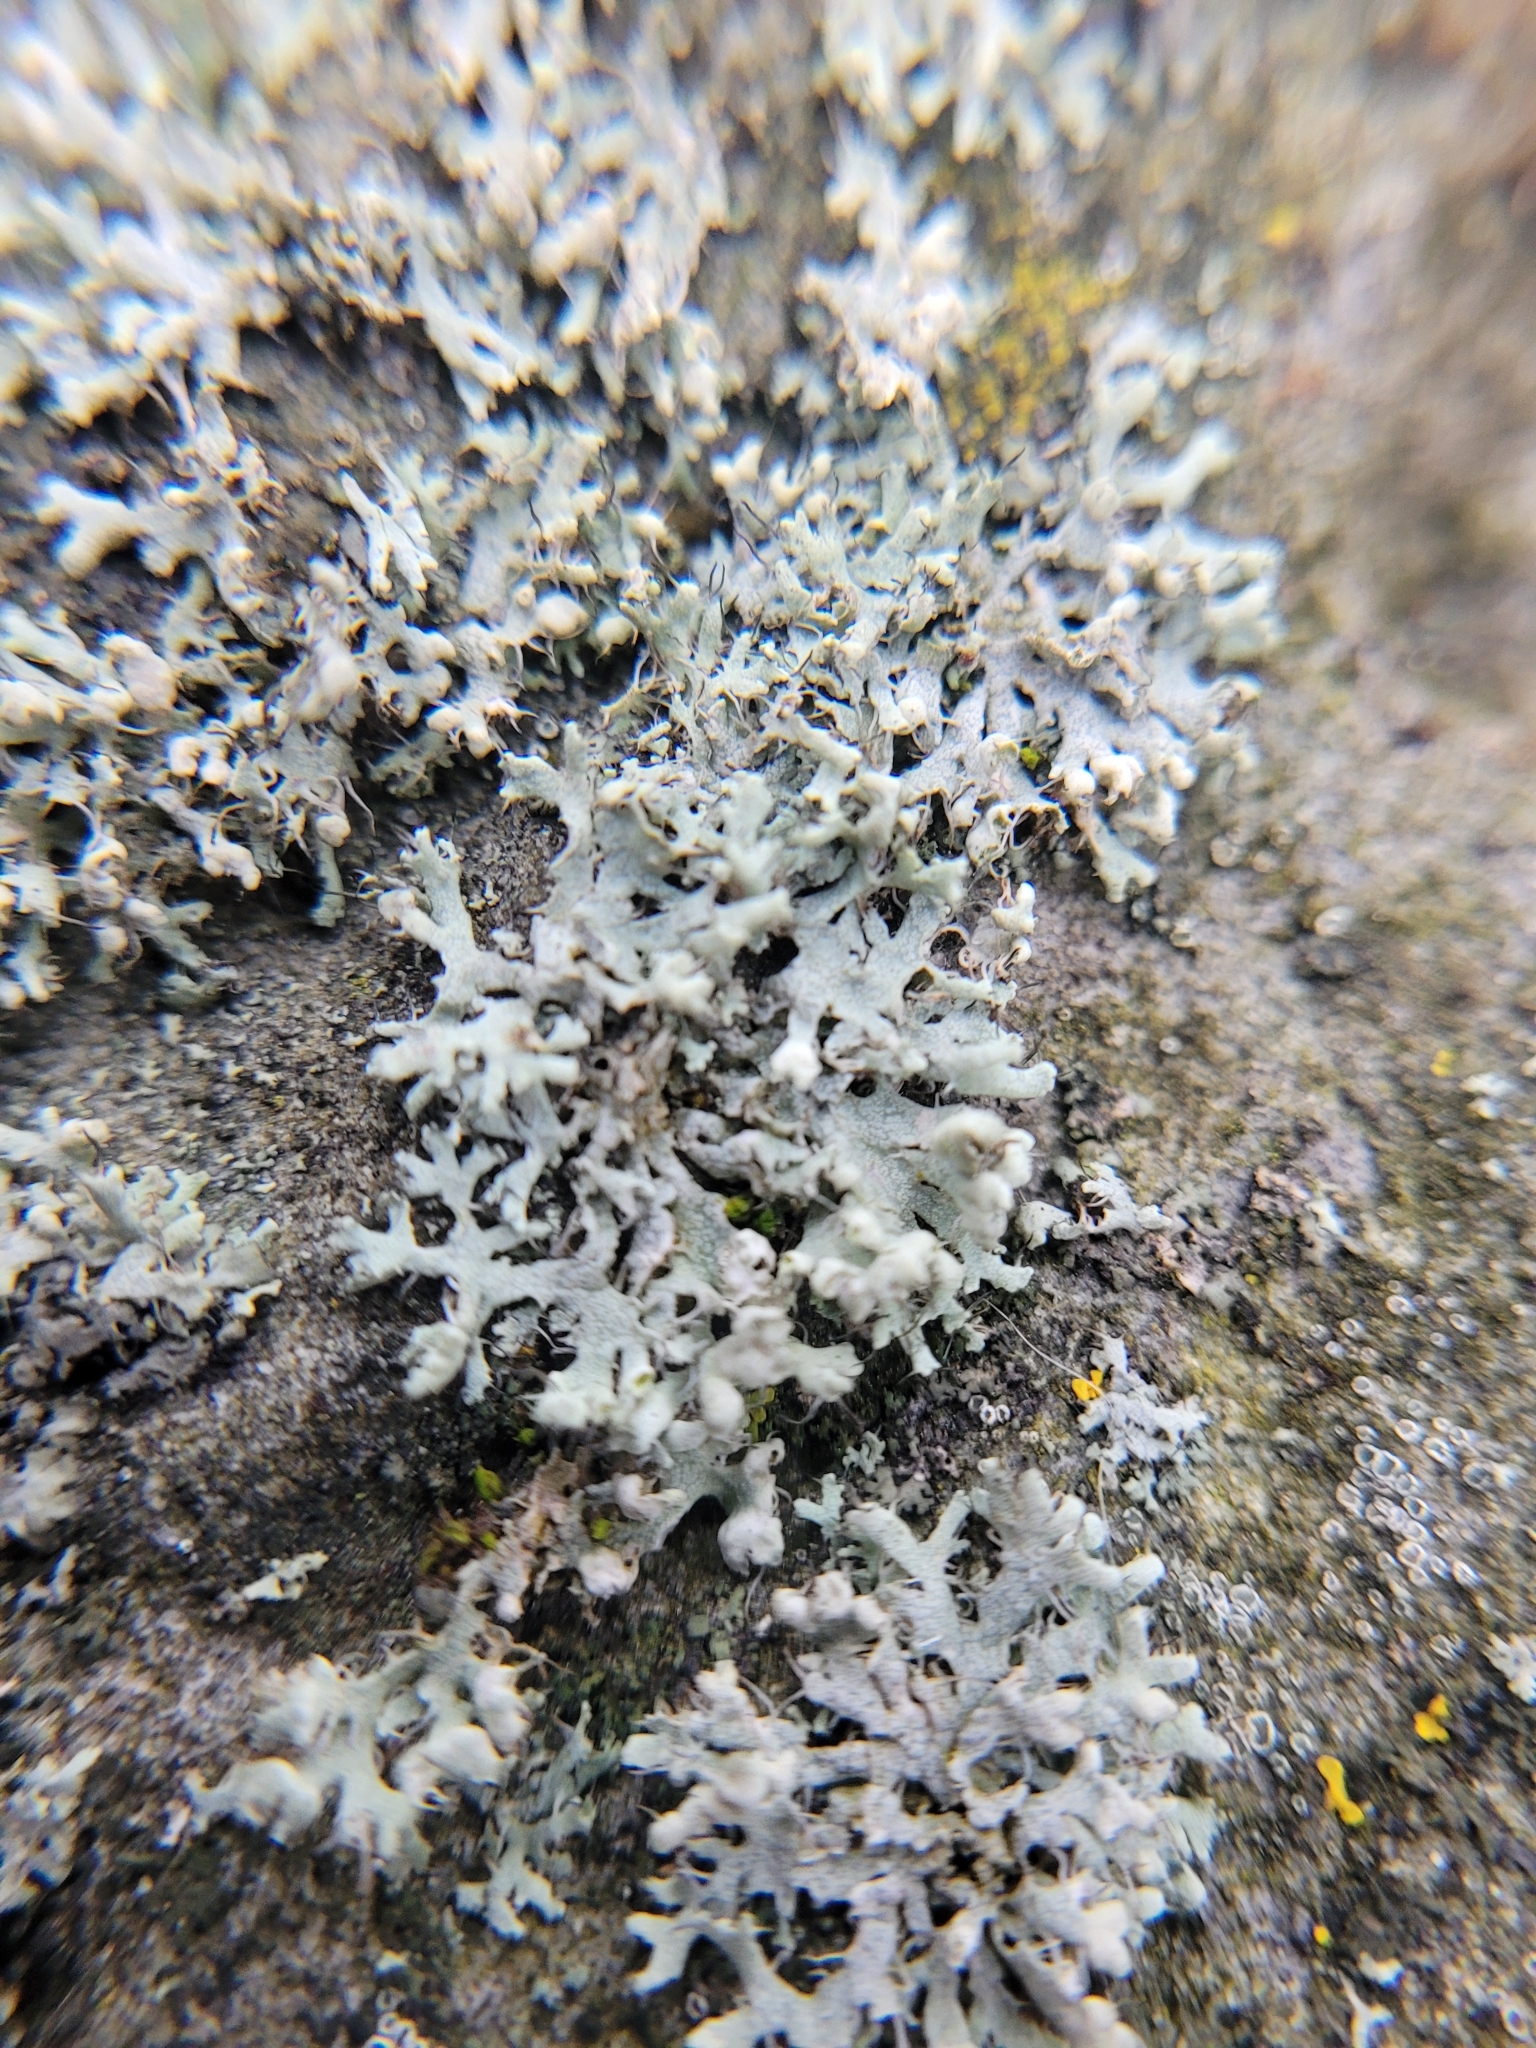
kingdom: Fungi
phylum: Ascomycota
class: Lecanoromycetes
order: Caliciales
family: Physciaceae
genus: Physcia
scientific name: Physcia adscendens
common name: Hooded rosette lichen
